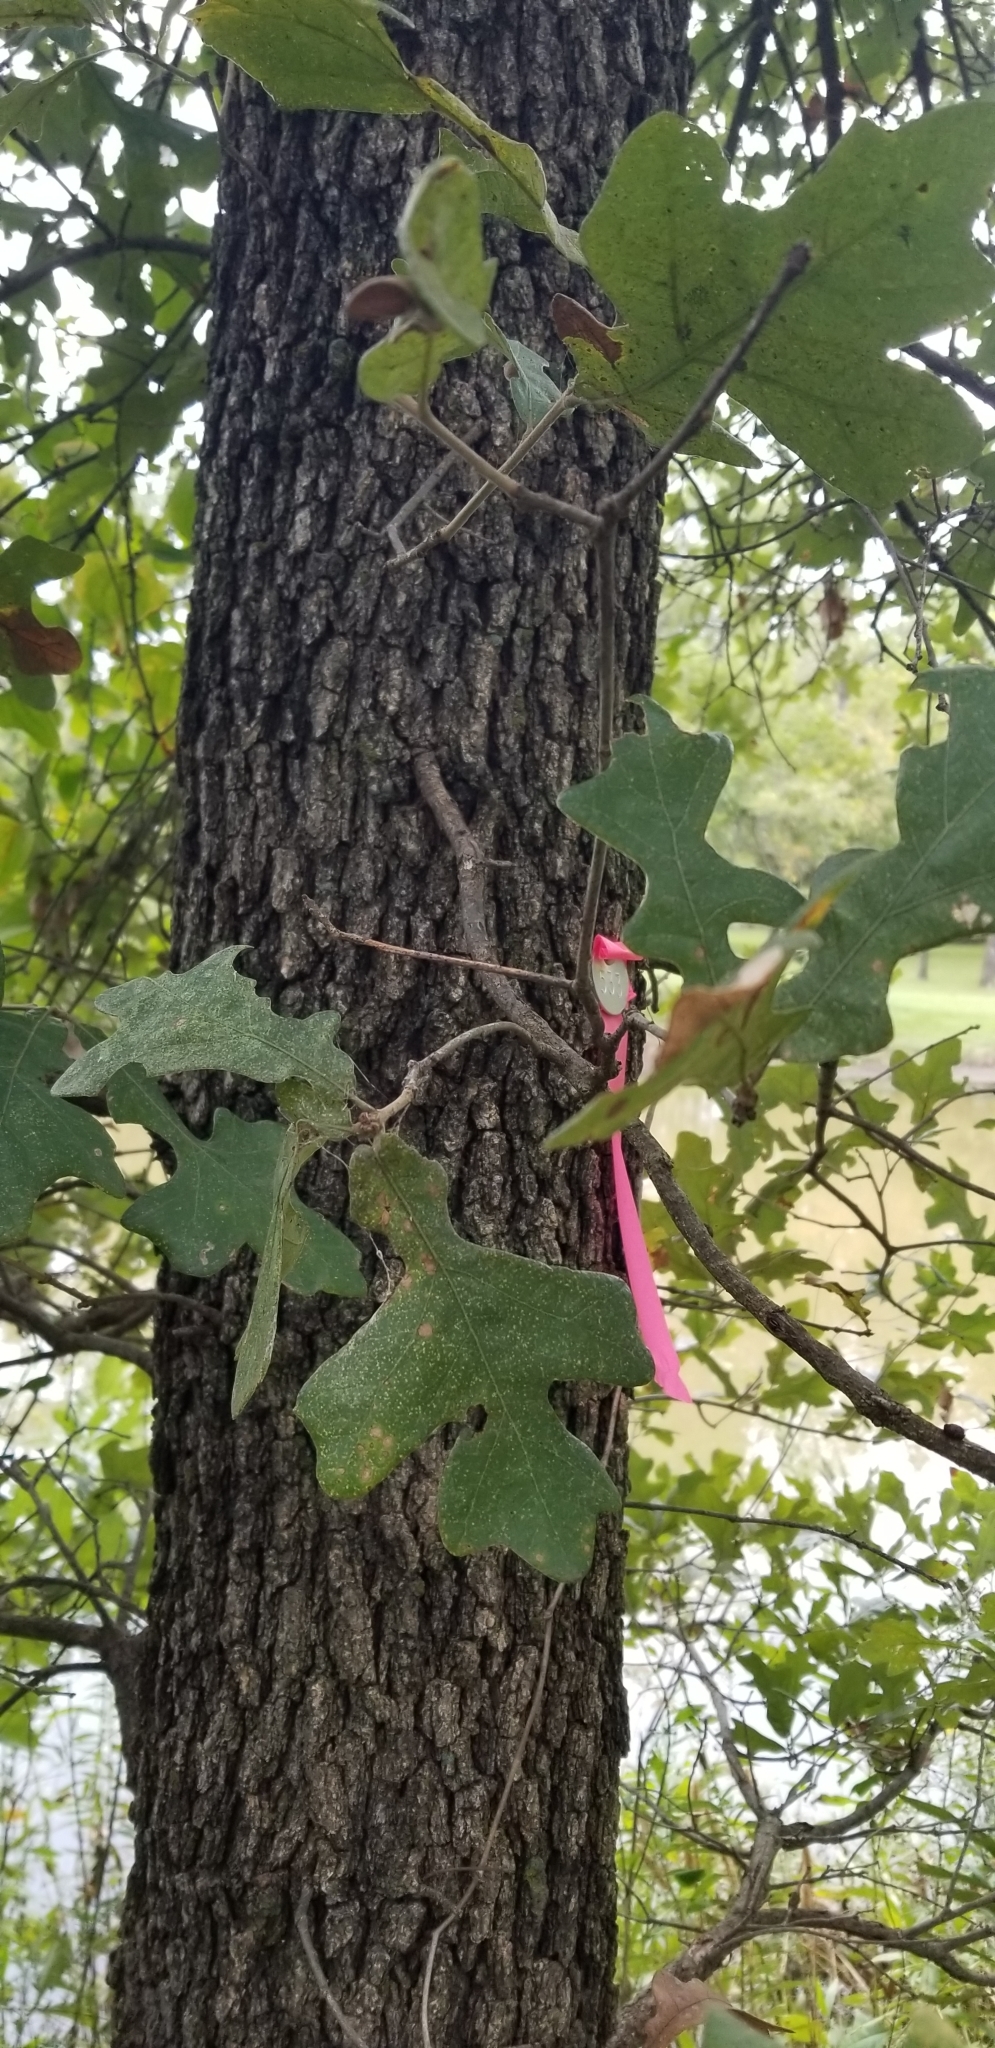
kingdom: Plantae
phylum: Tracheophyta
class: Magnoliopsida
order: Fagales
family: Fagaceae
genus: Quercus
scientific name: Quercus stellata
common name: Post oak
